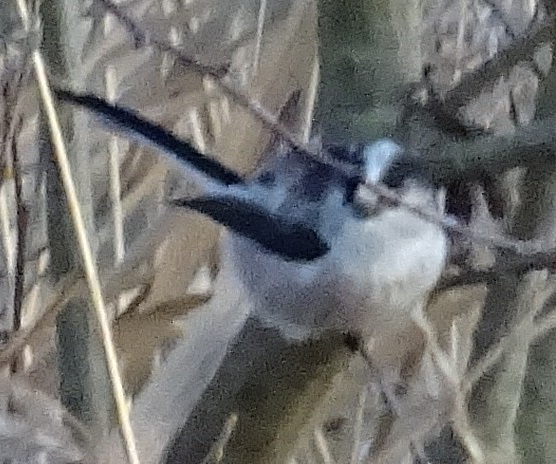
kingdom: Animalia
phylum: Chordata
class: Aves
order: Passeriformes
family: Aegithalidae
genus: Aegithalos
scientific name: Aegithalos caudatus
